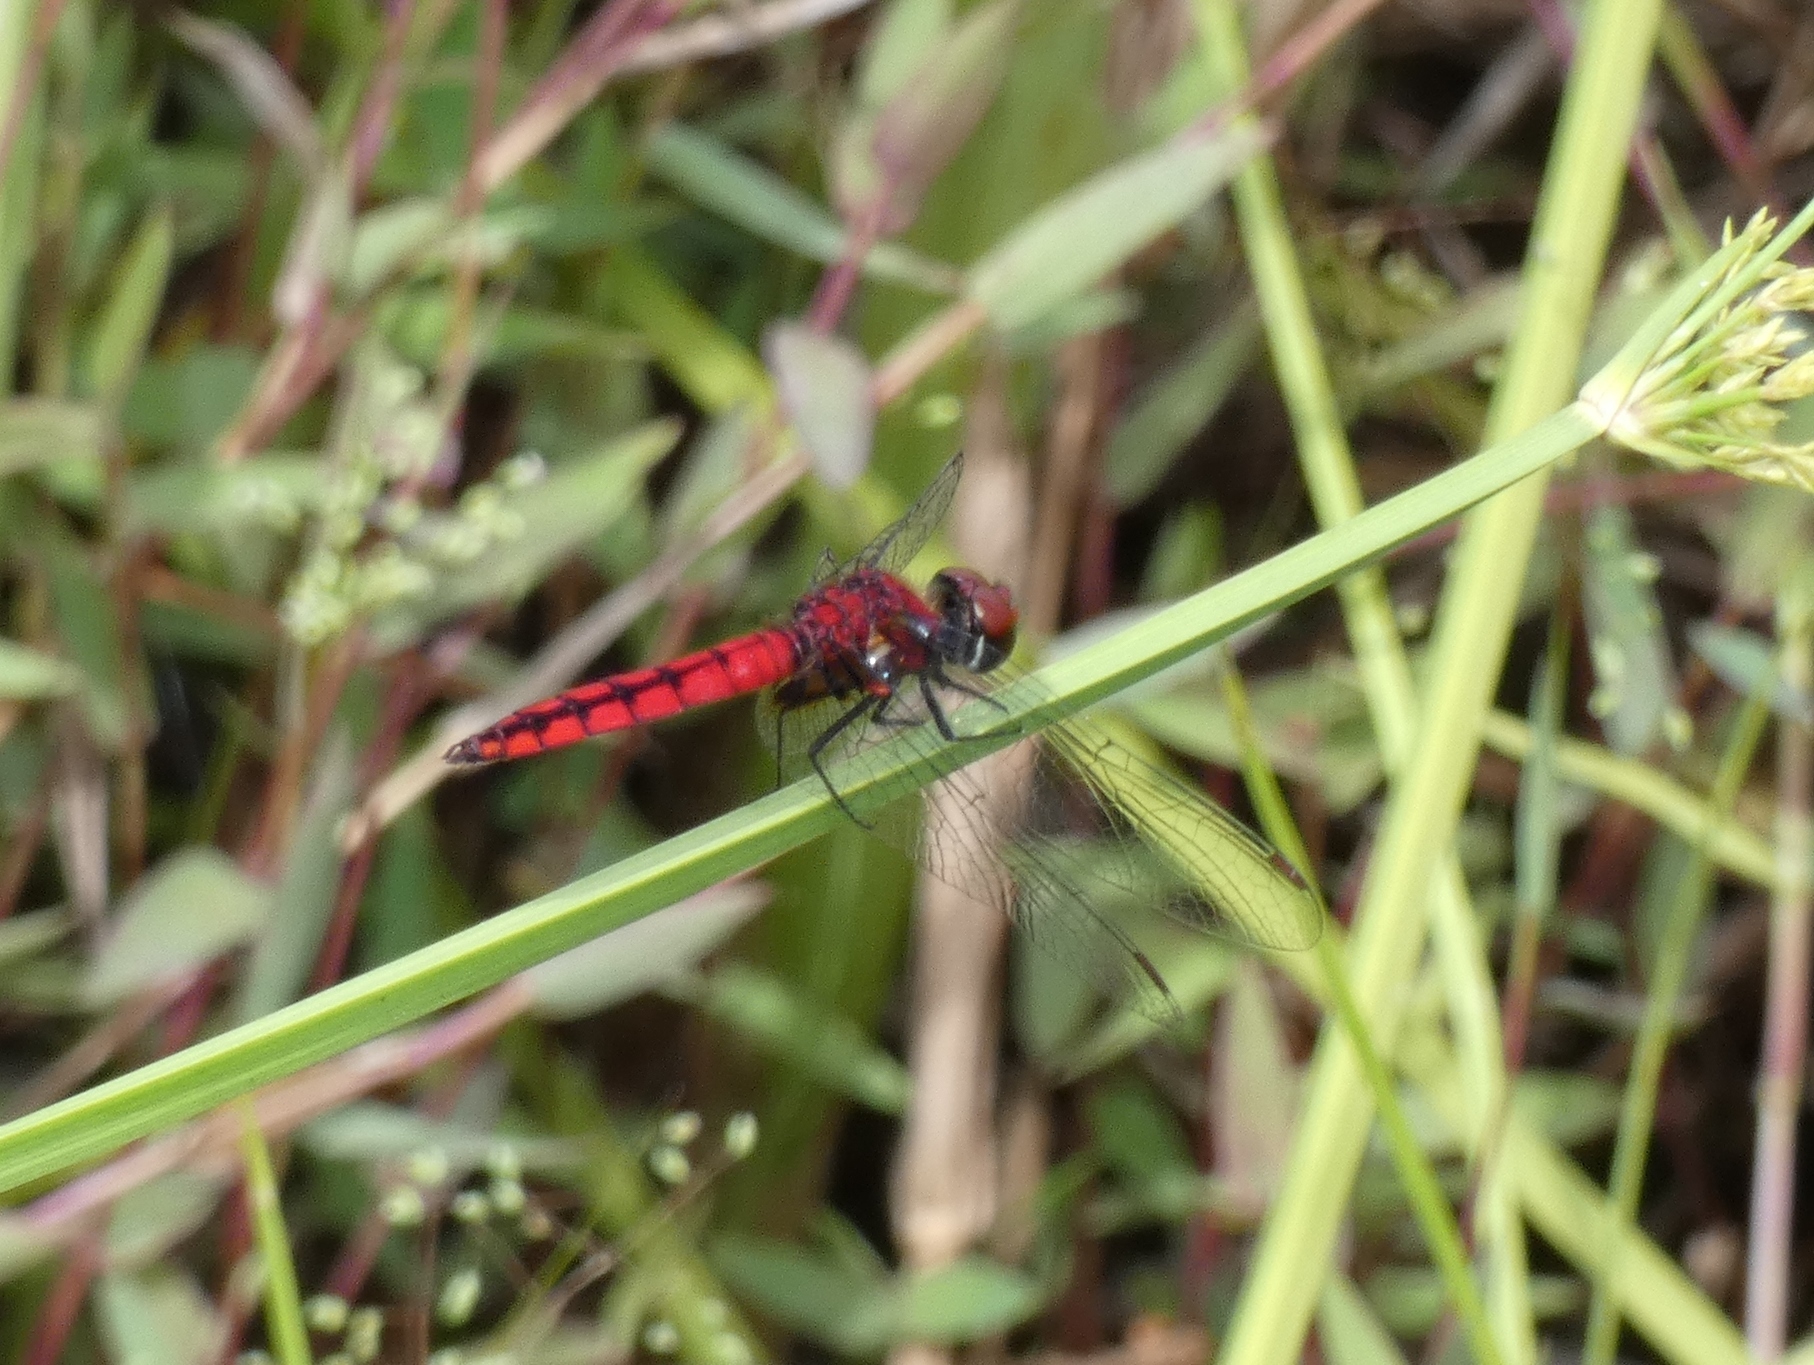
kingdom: Animalia
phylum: Arthropoda
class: Insecta
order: Odonata
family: Libellulidae
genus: Aethriamanta
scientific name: Aethriamanta rezia
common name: Pygmy basker
